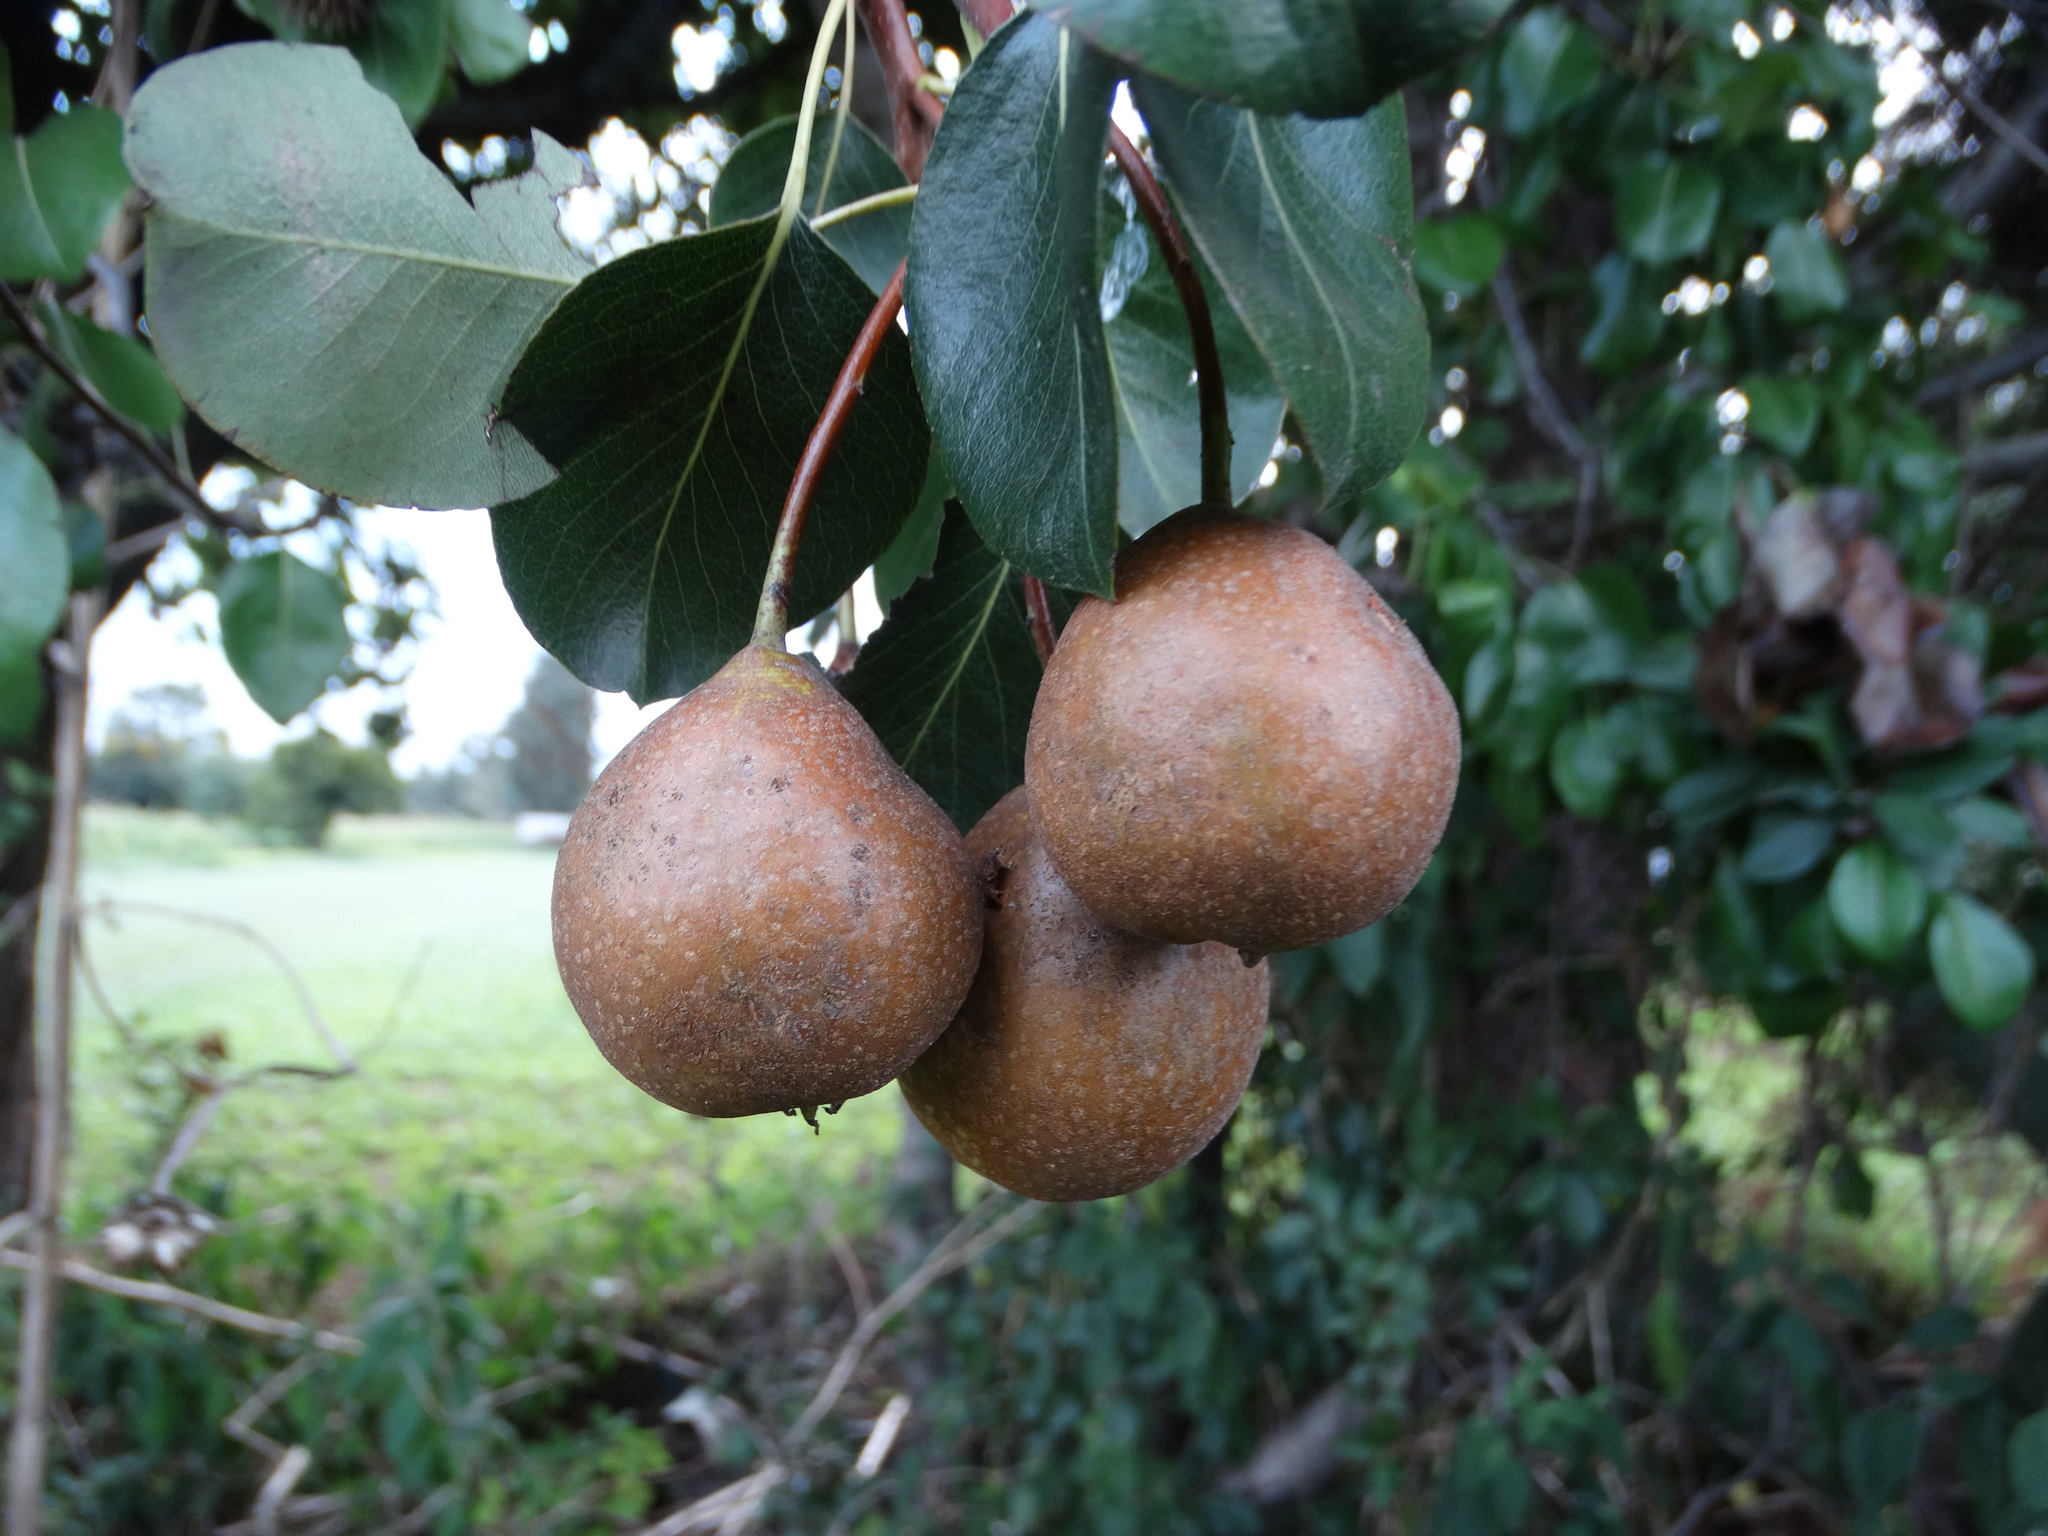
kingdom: Plantae
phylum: Tracheophyta
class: Magnoliopsida
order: Rosales
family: Rosaceae
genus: Pyrus
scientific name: Pyrus communis
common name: Pear
